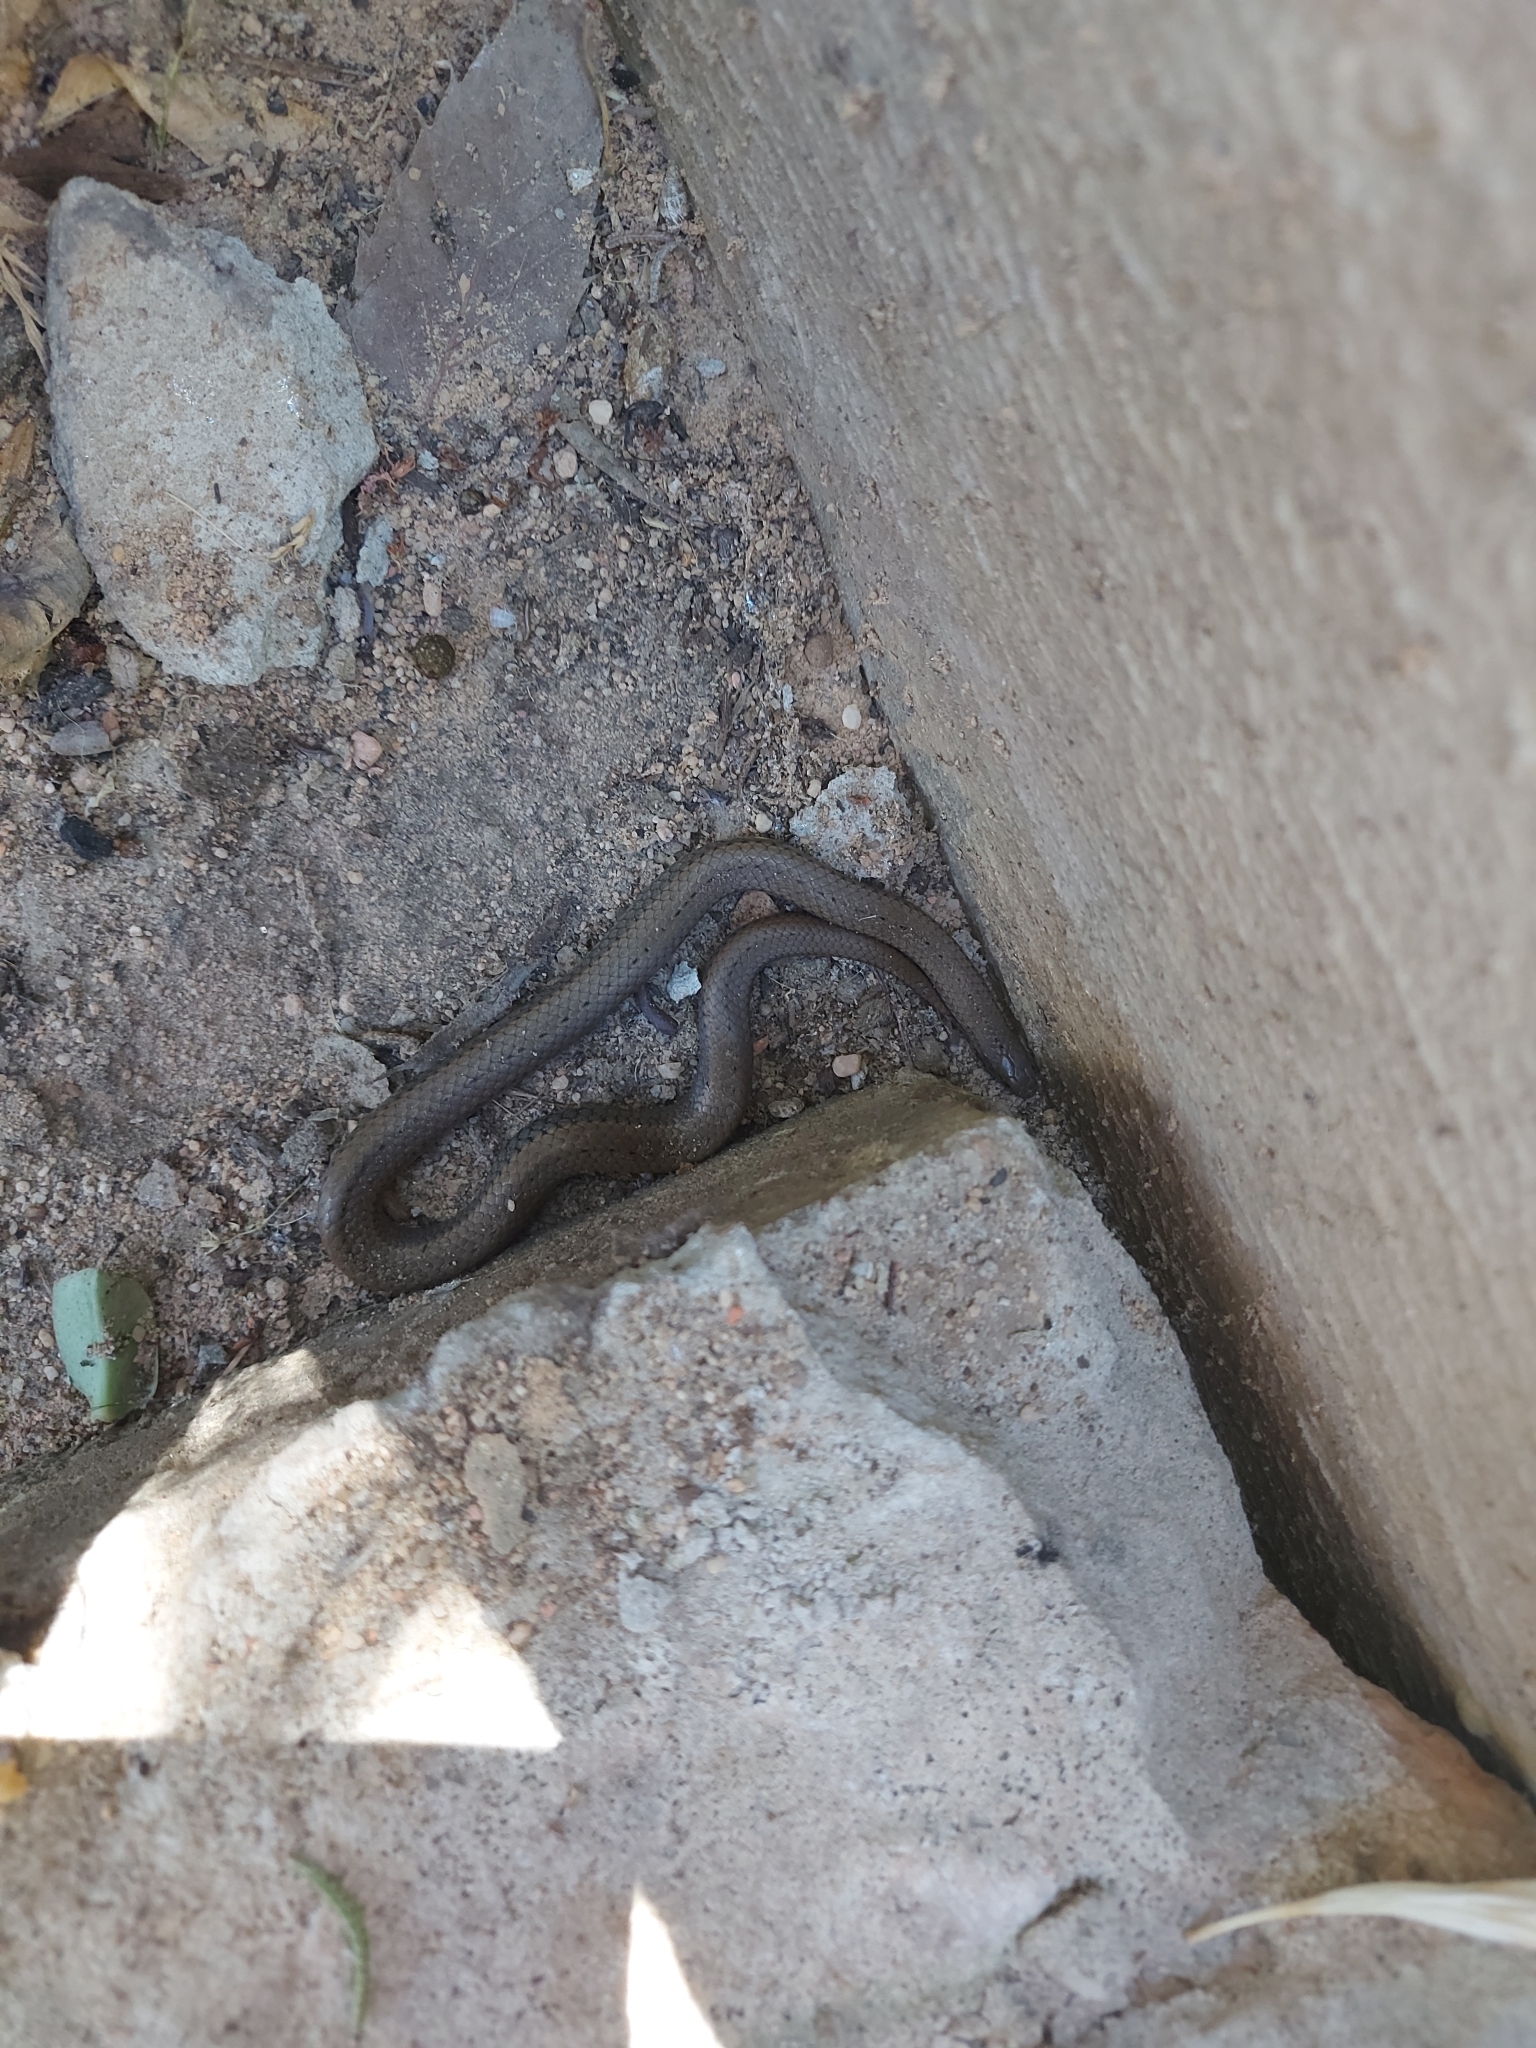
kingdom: Animalia
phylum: Chordata
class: Squamata
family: Pseudoxyrhophiidae
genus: Duberria
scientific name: Duberria lutrix
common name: Common slug eater
